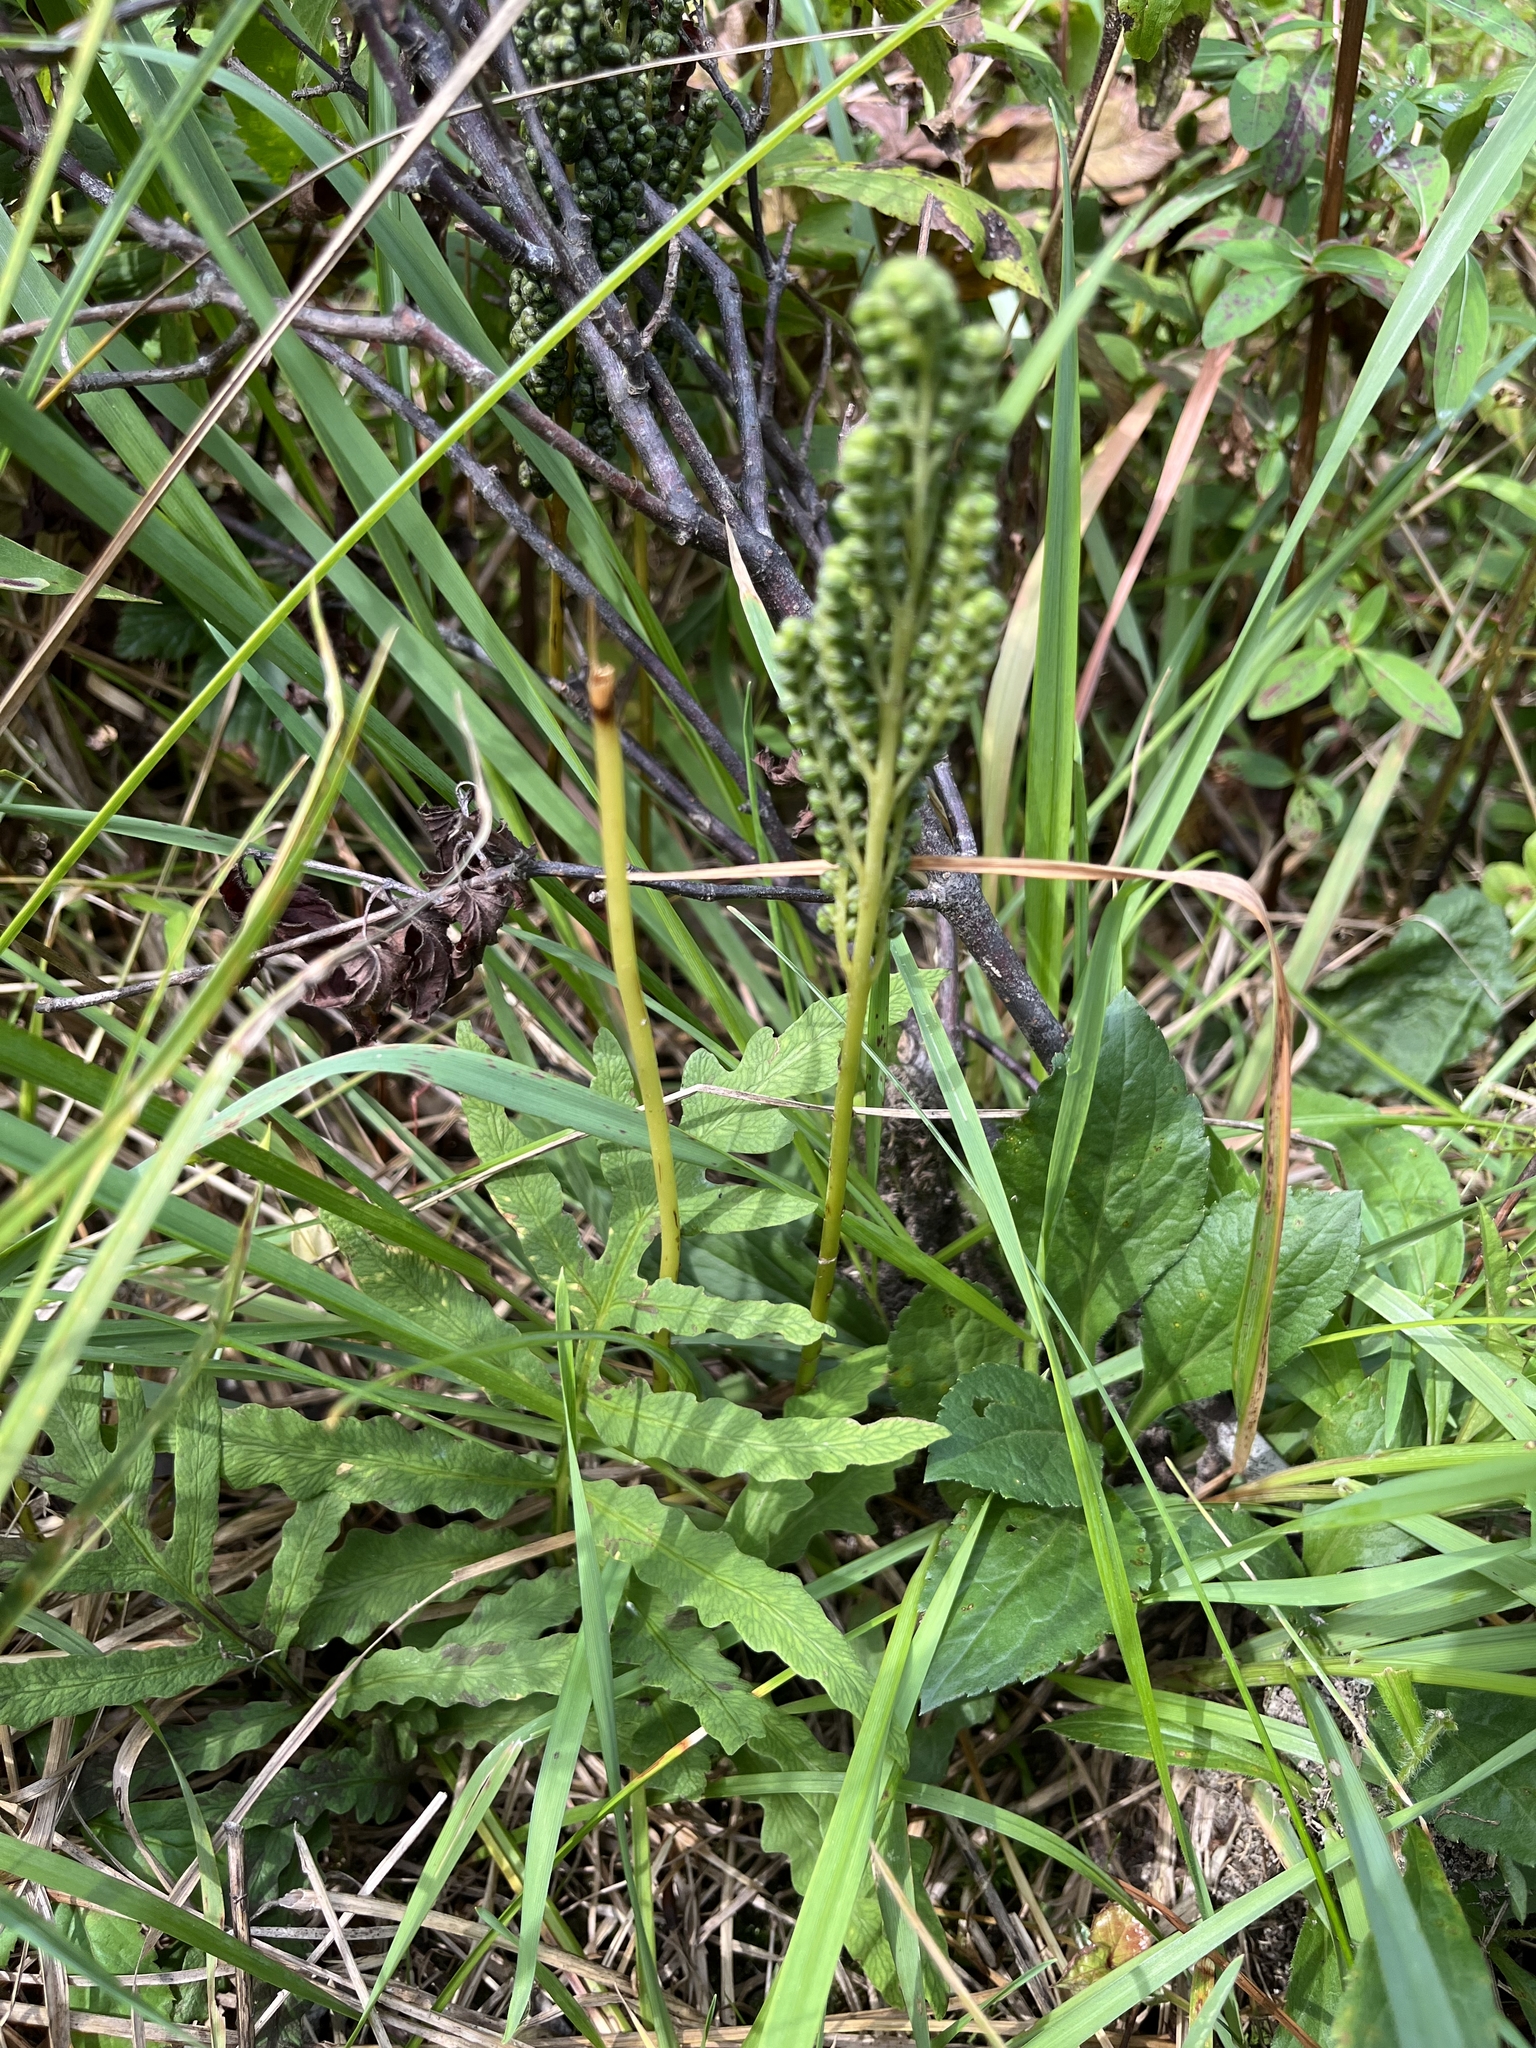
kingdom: Plantae
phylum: Tracheophyta
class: Polypodiopsida
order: Polypodiales
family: Onocleaceae
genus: Onoclea
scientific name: Onoclea sensibilis
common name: Sensitive fern
